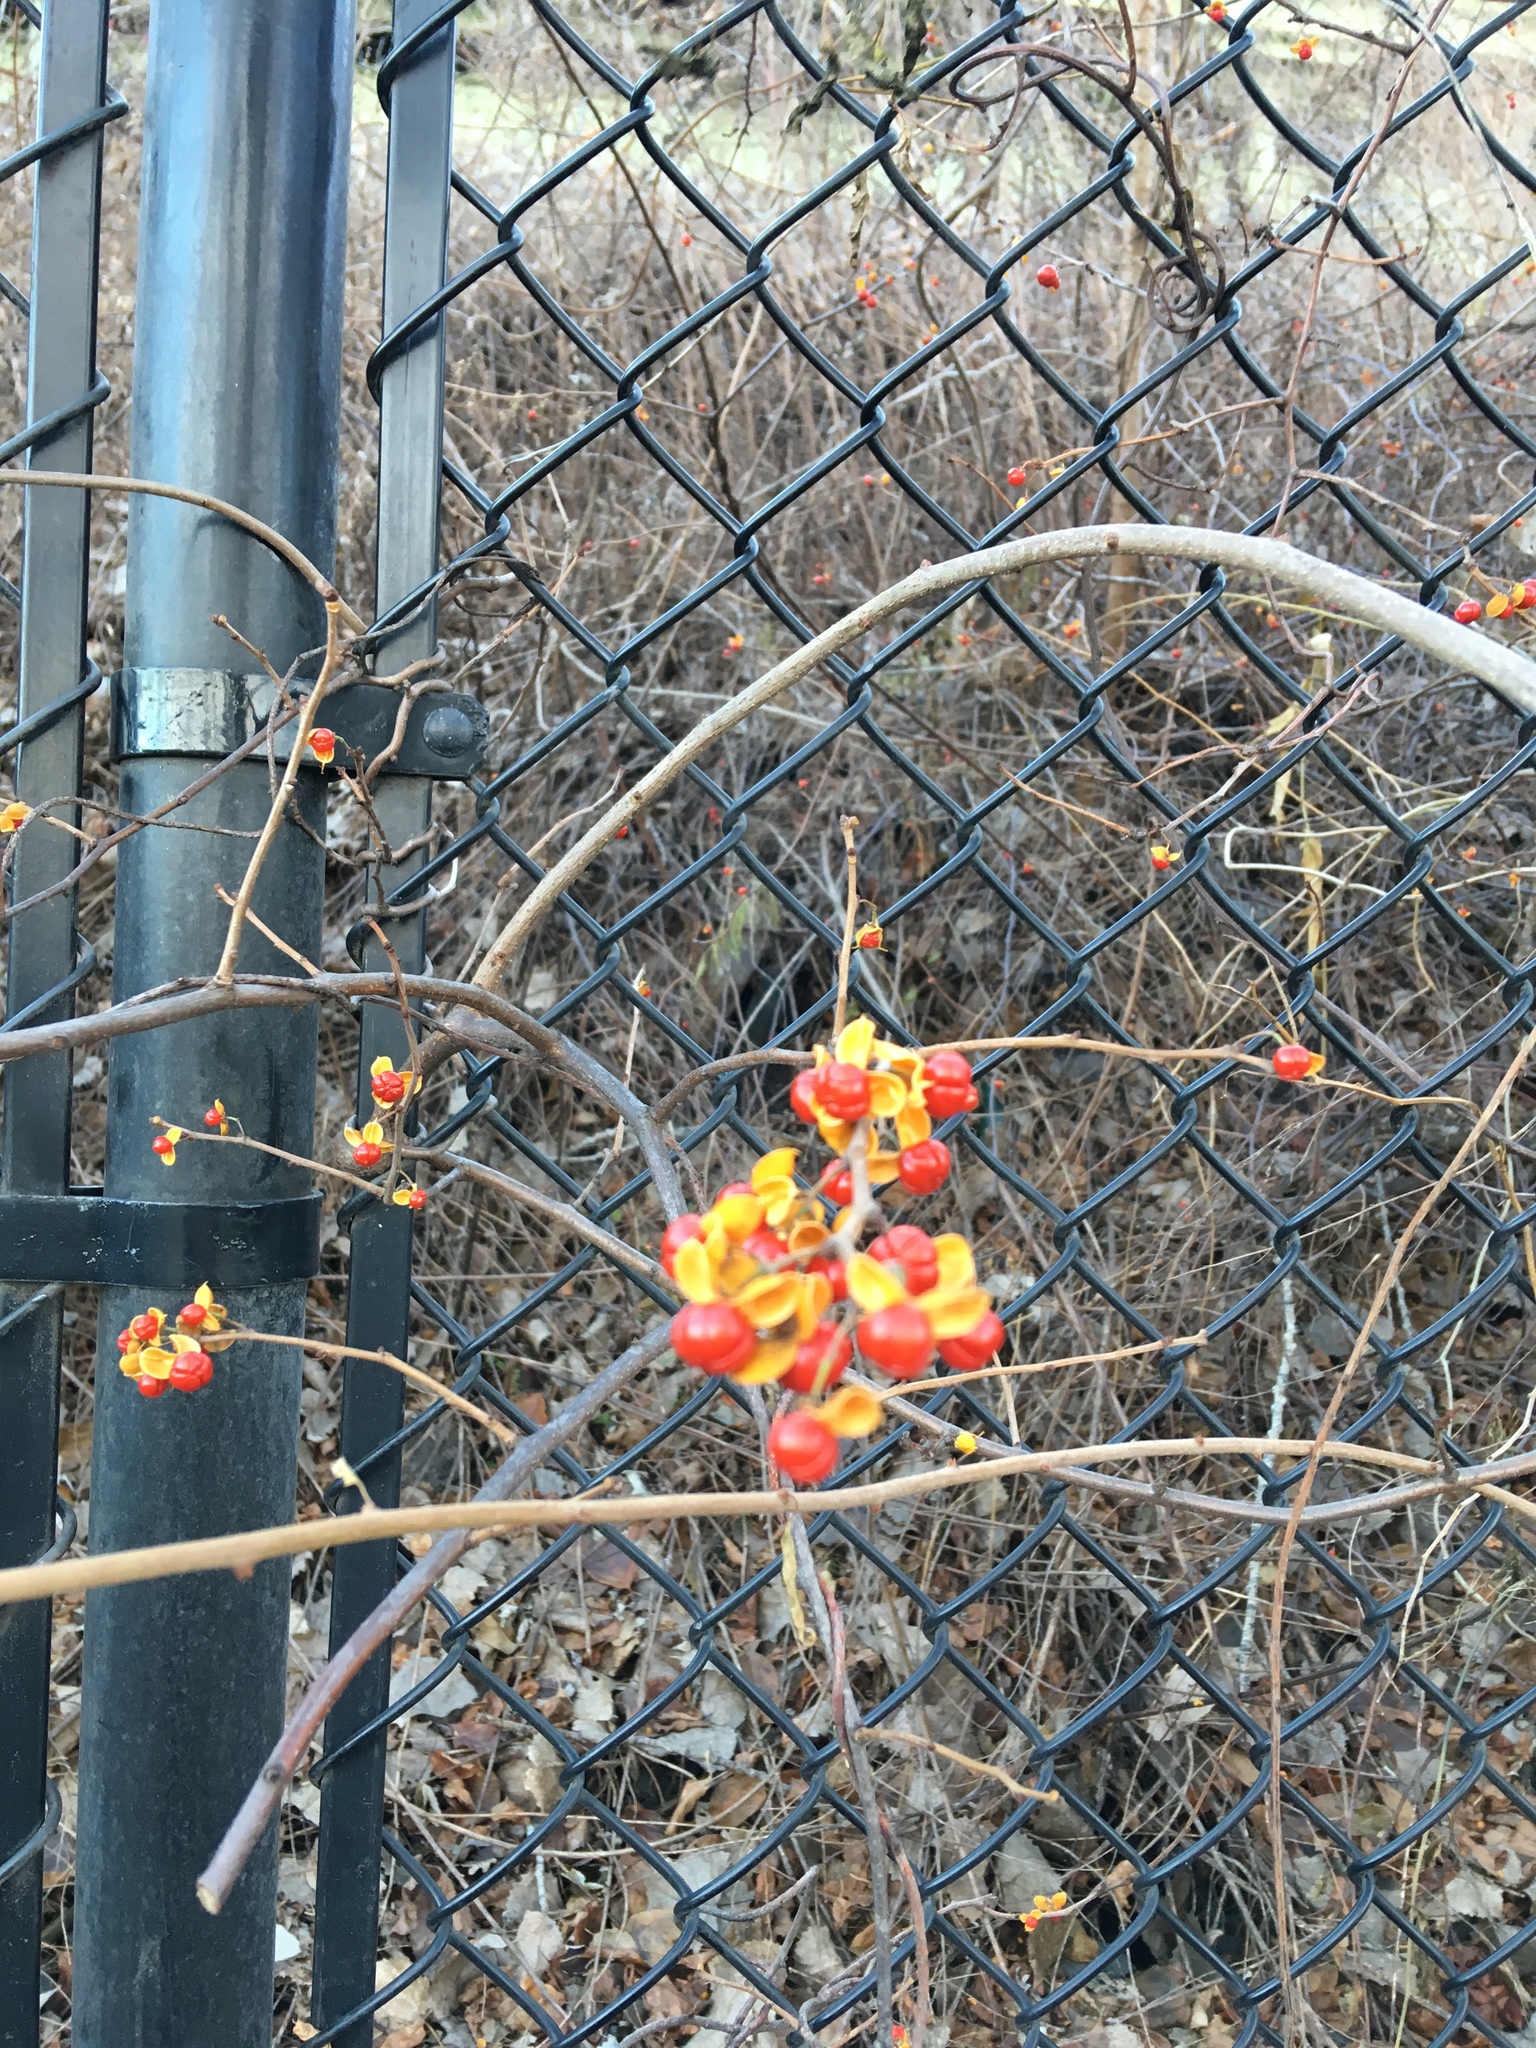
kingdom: Plantae
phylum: Tracheophyta
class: Magnoliopsida
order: Celastrales
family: Celastraceae
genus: Celastrus
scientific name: Celastrus orbiculatus
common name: Oriental bittersweet
